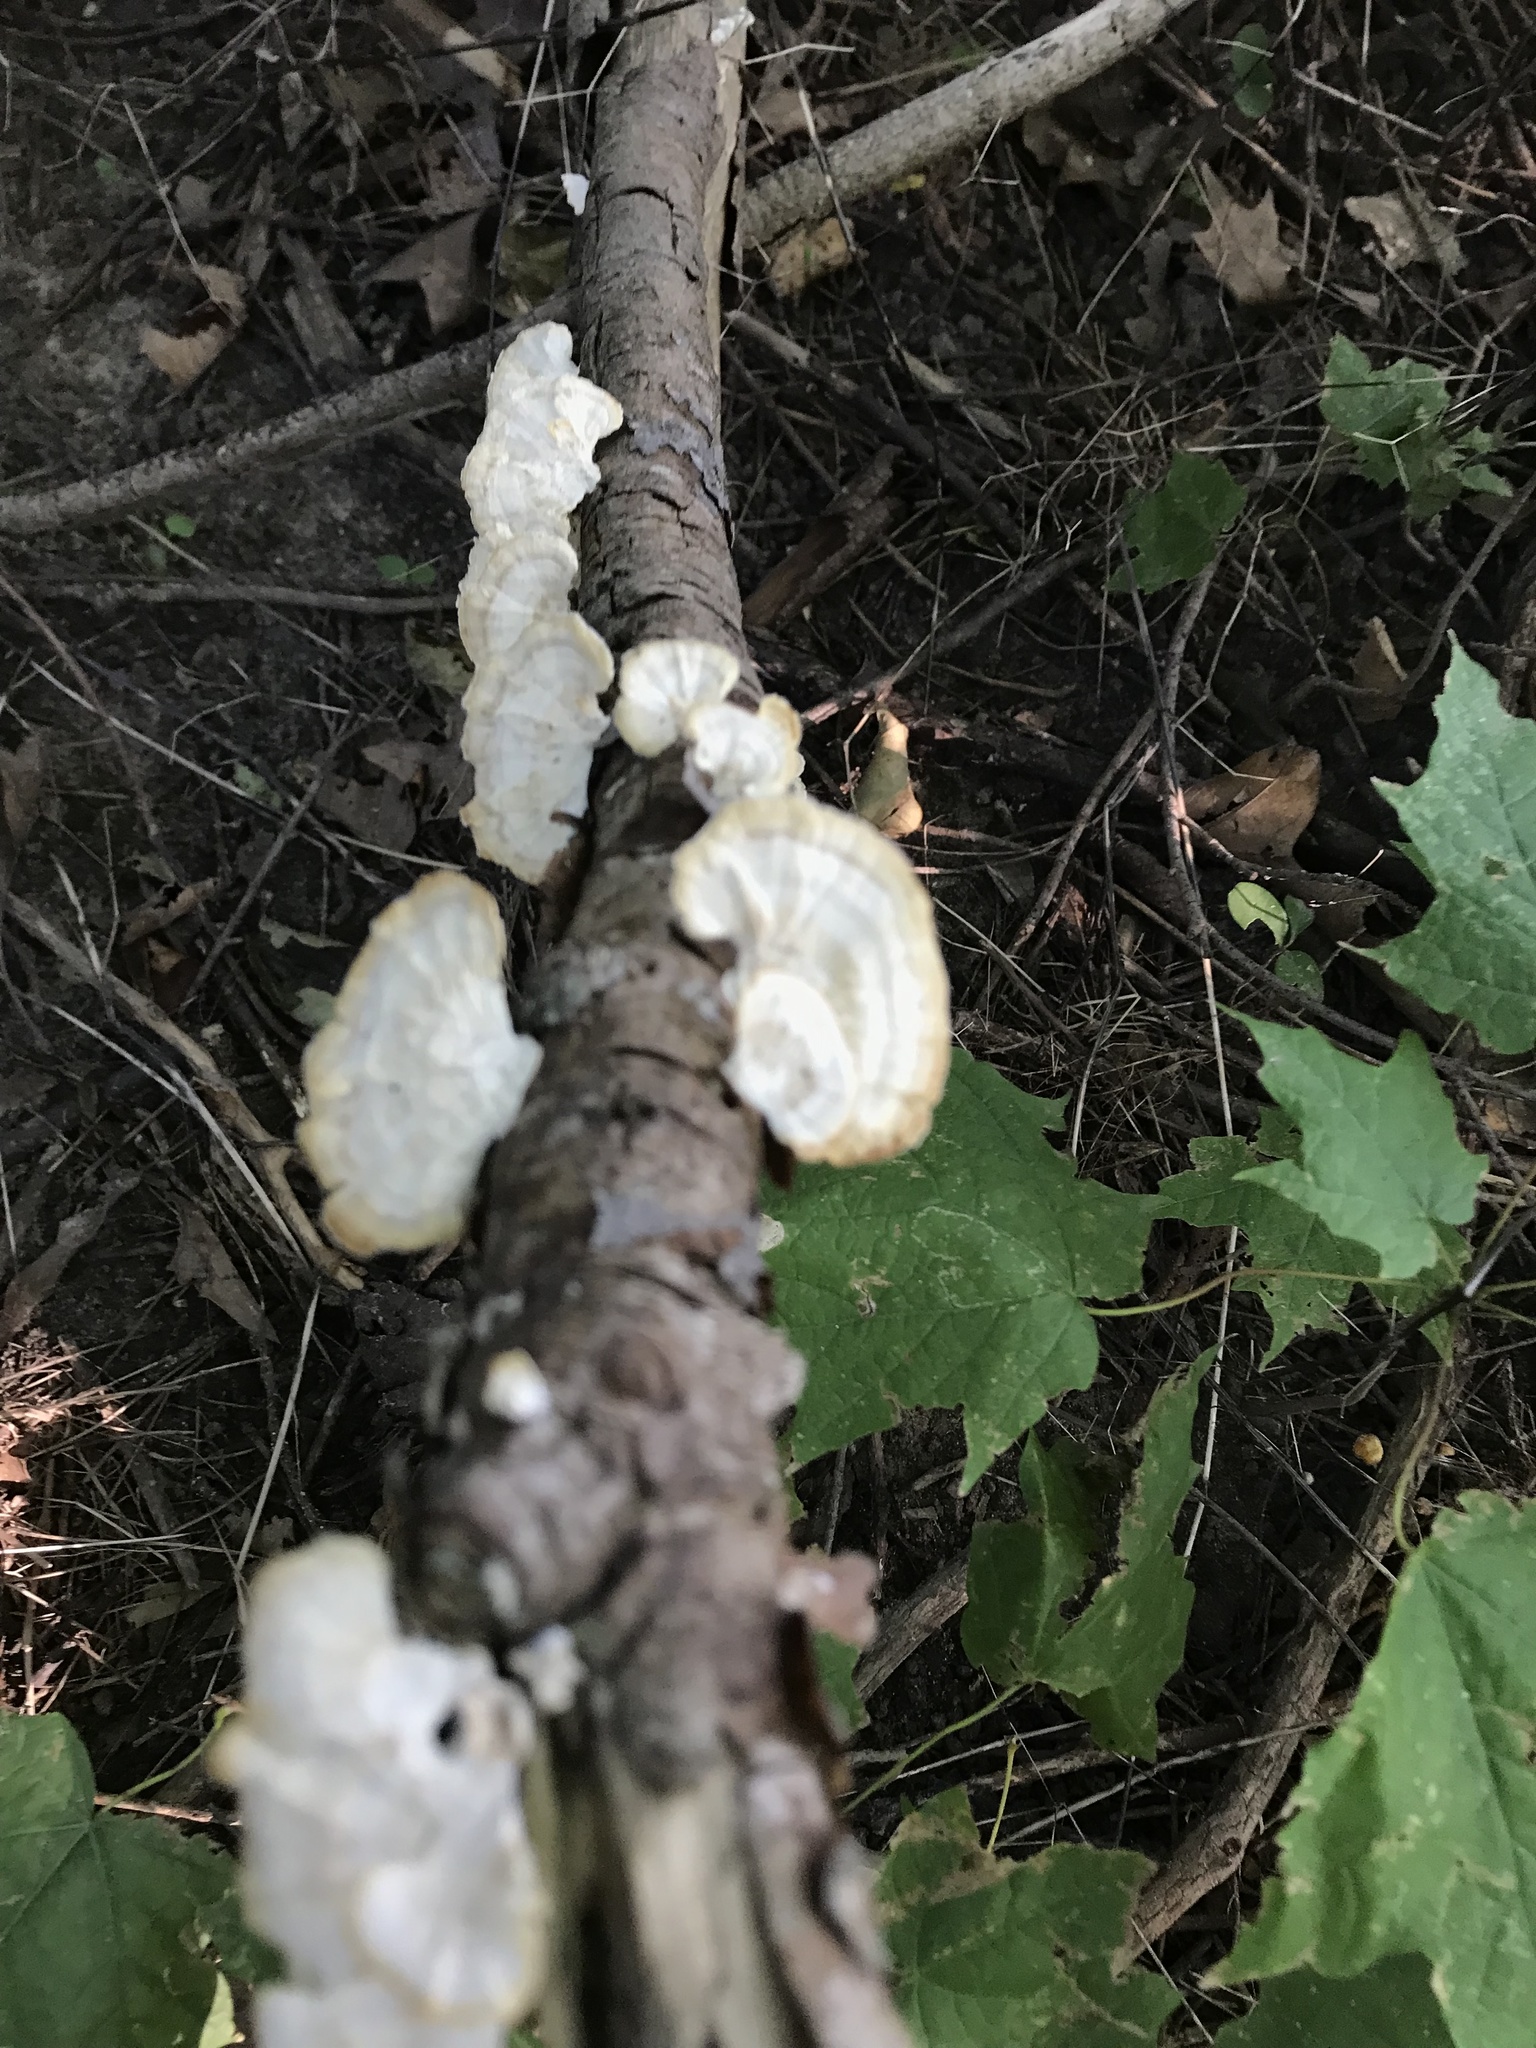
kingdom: Fungi
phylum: Basidiomycota
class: Agaricomycetes
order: Polyporales
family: Polyporaceae
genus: Poronidulus
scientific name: Poronidulus conchifer
